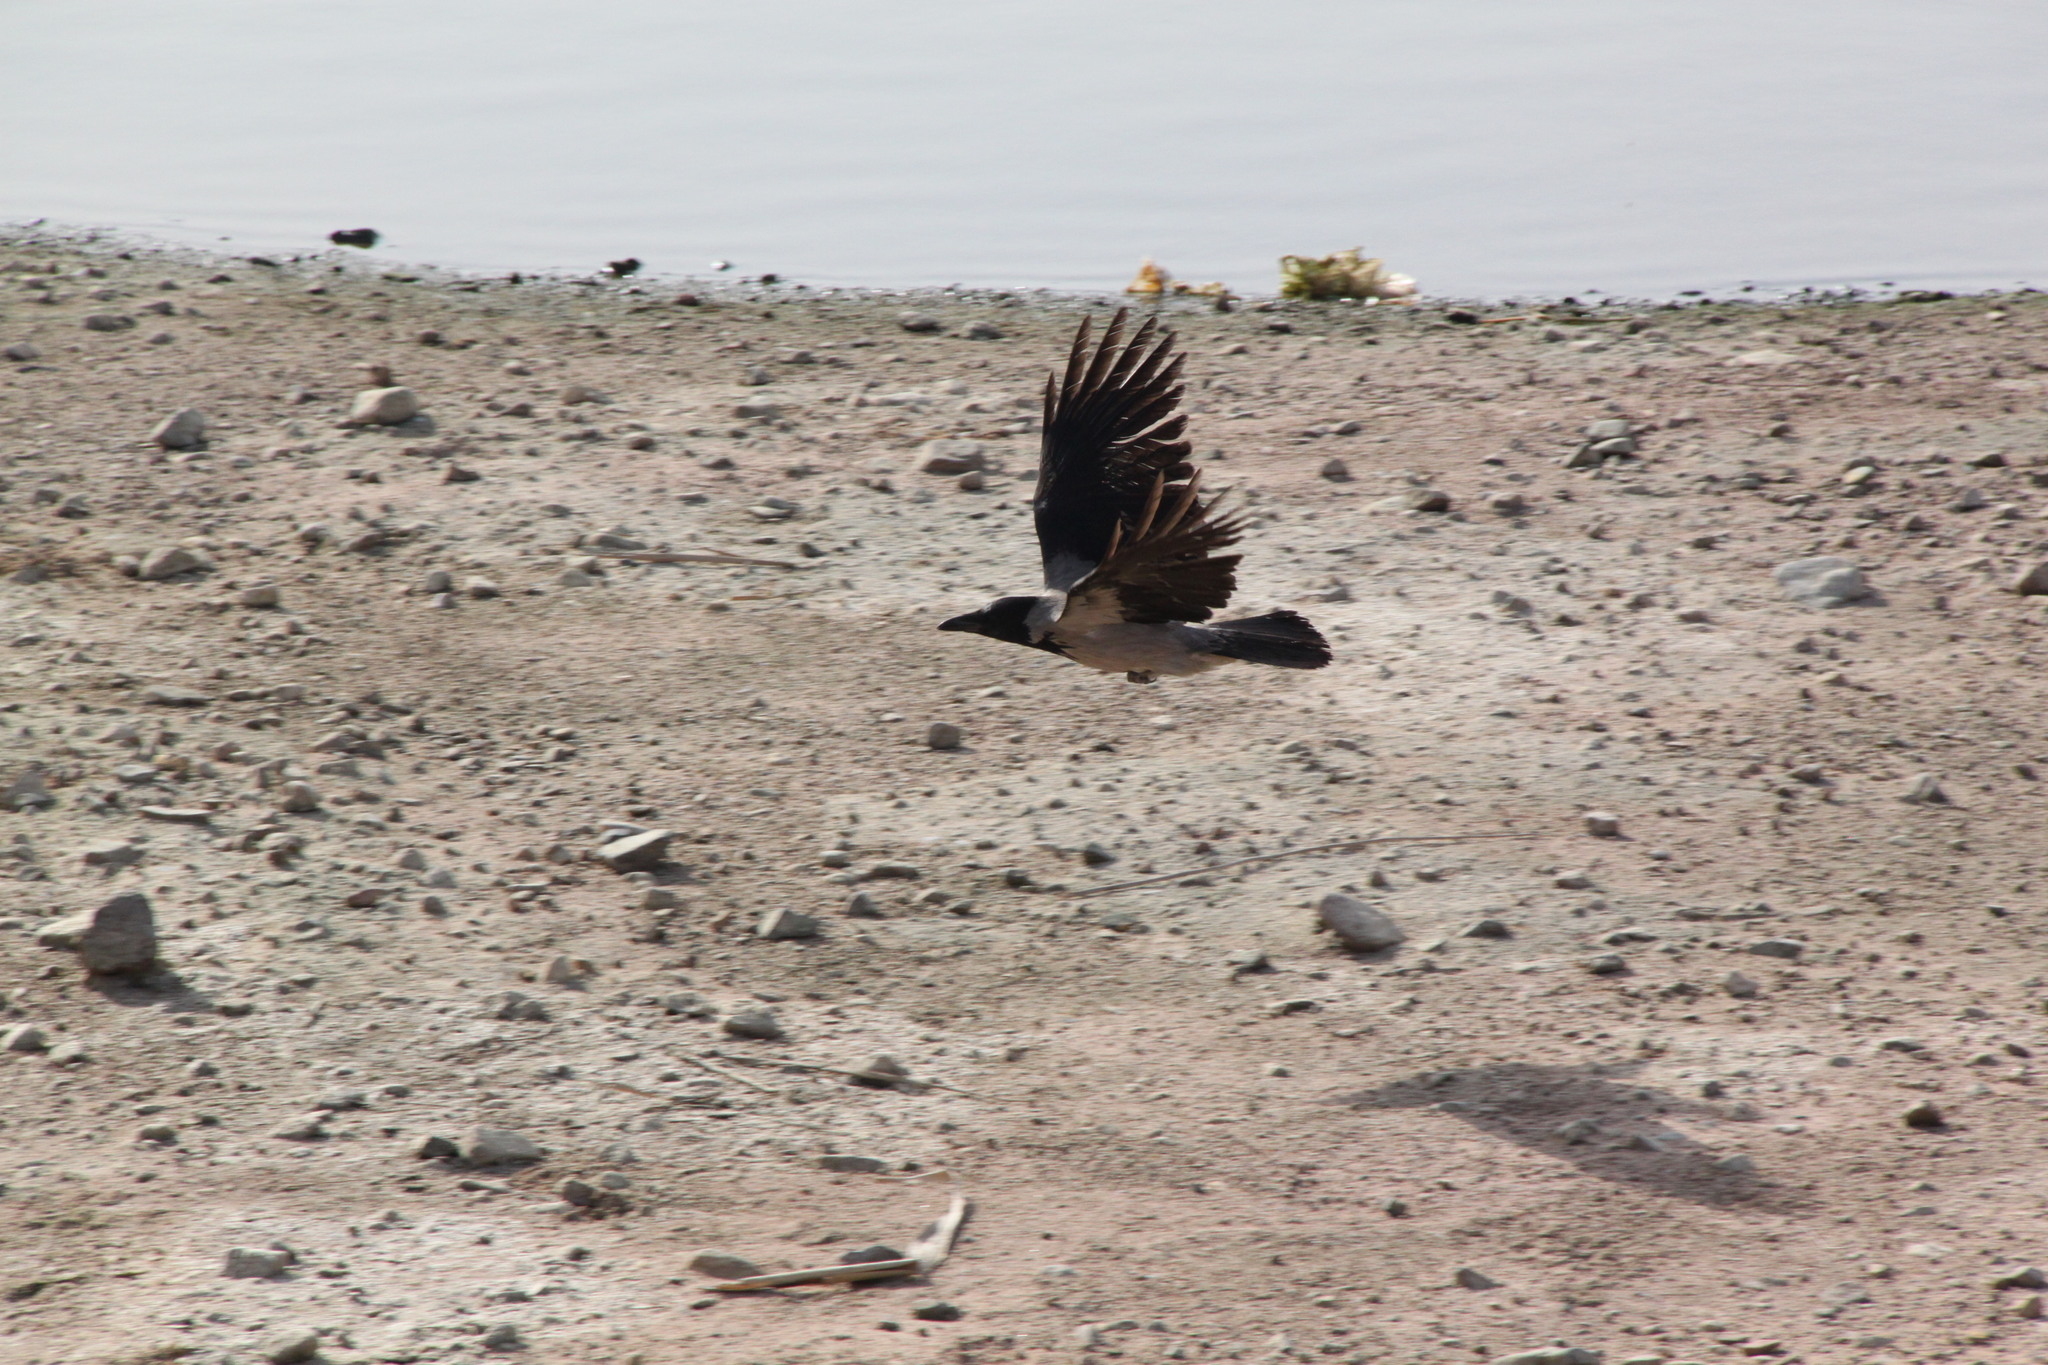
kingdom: Animalia
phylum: Chordata
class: Aves
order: Passeriformes
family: Corvidae
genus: Corvus
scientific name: Corvus cornix
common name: Hooded crow
